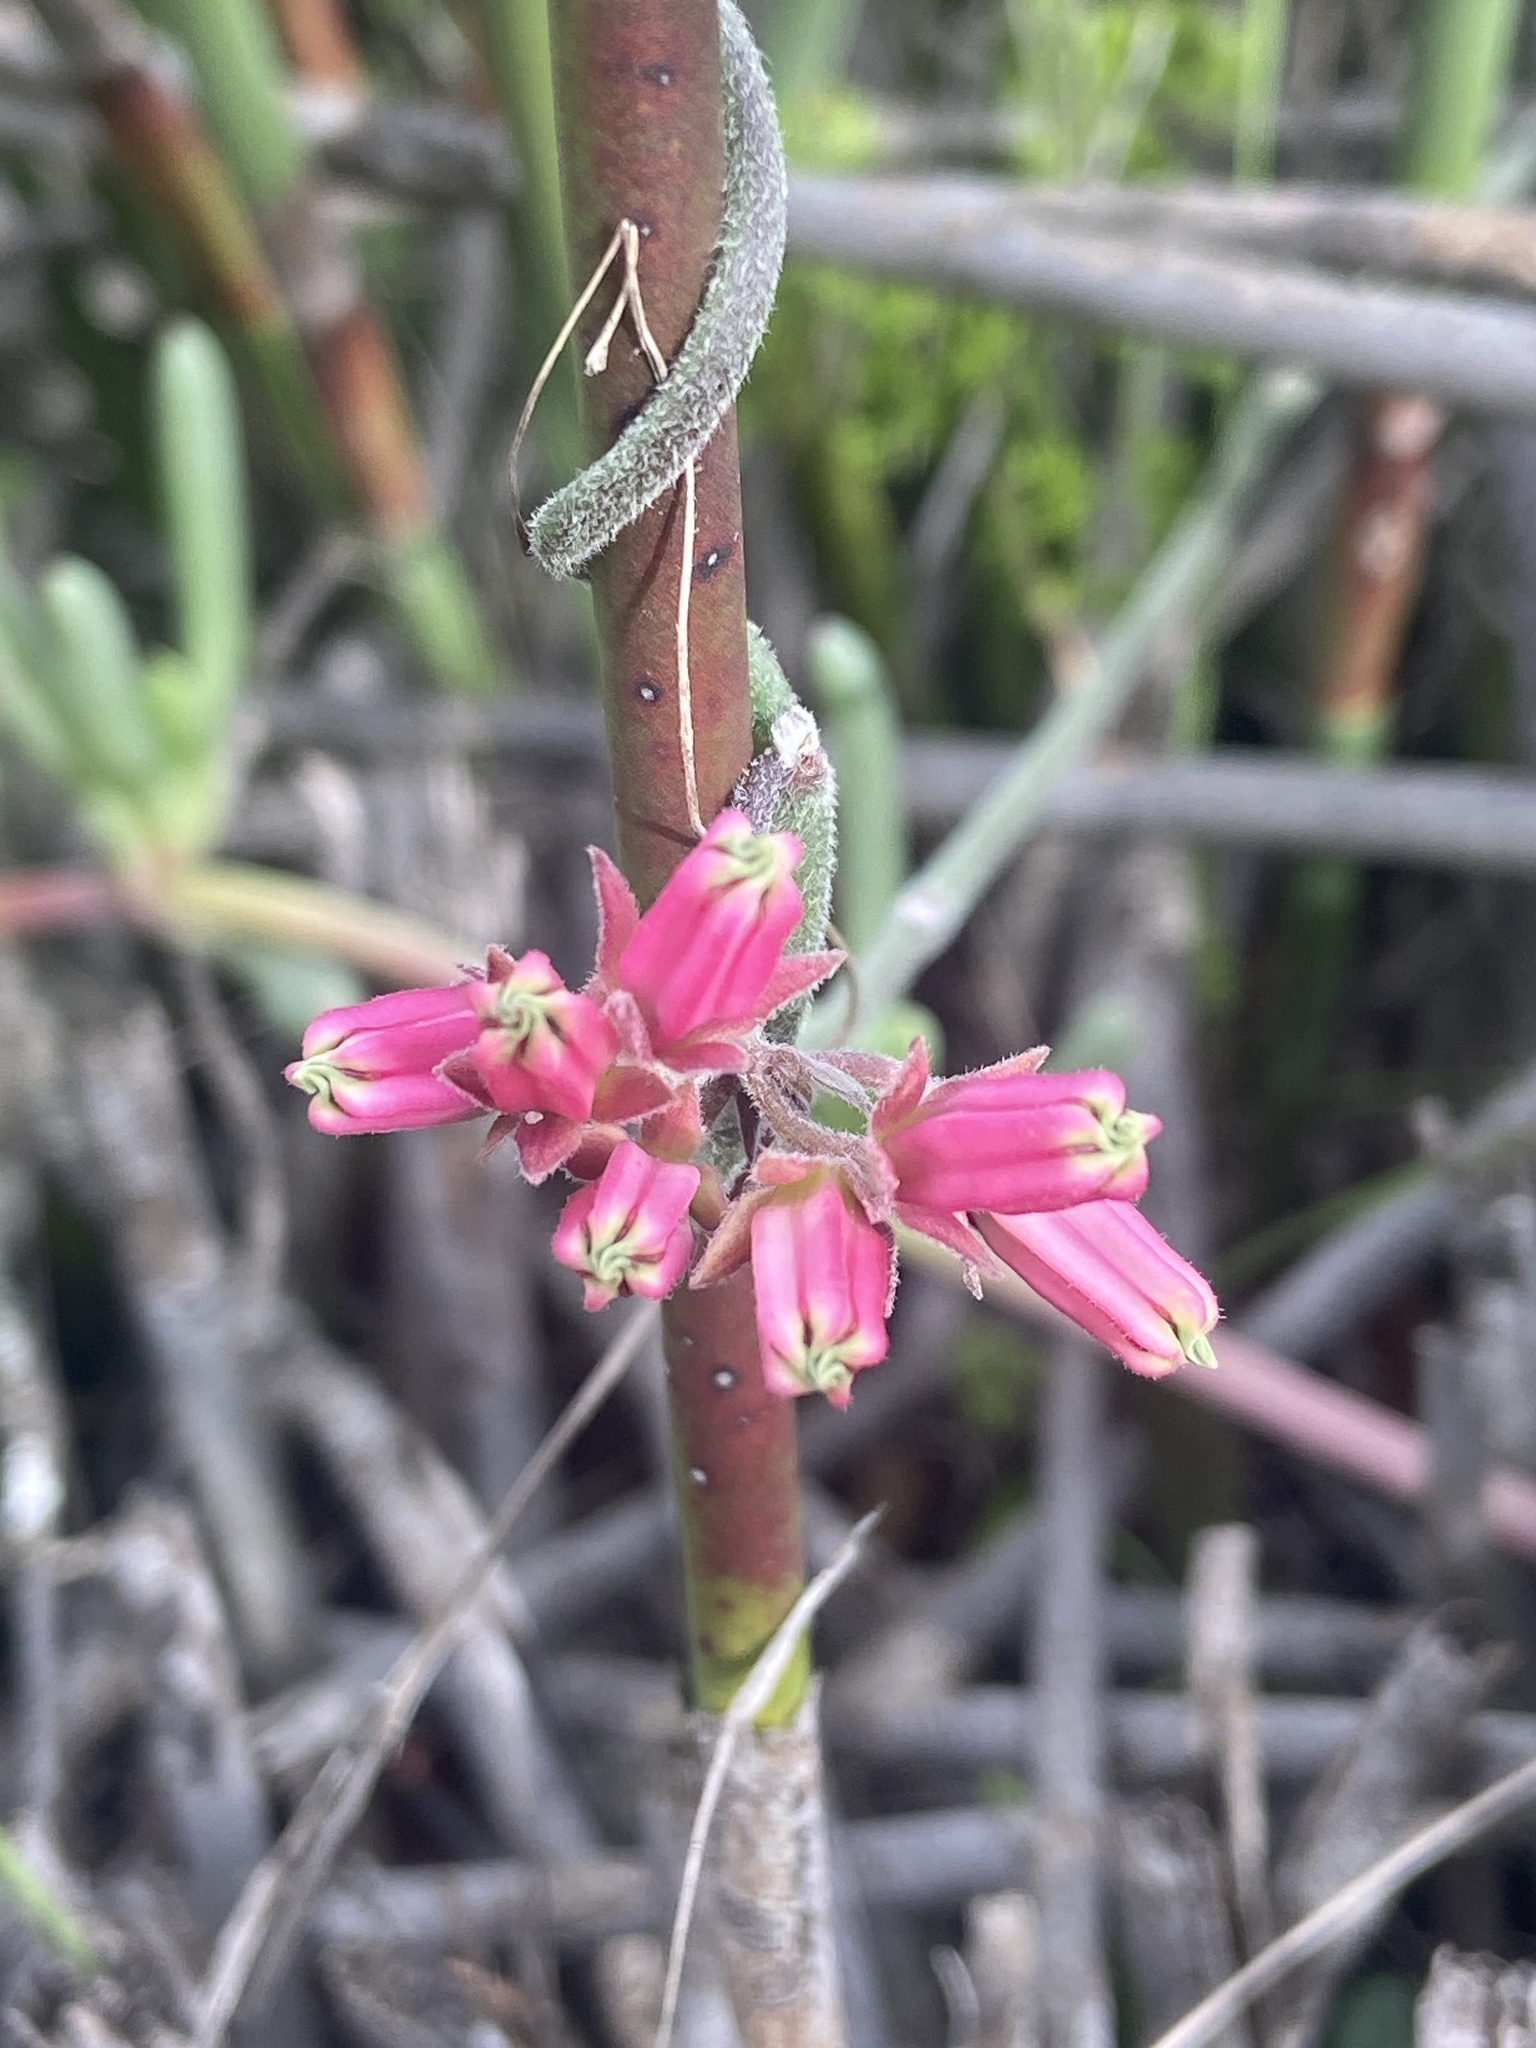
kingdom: Plantae
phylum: Tracheophyta
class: Magnoliopsida
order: Gentianales
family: Apocynaceae
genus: Microloma
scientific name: Microloma sagittatum
